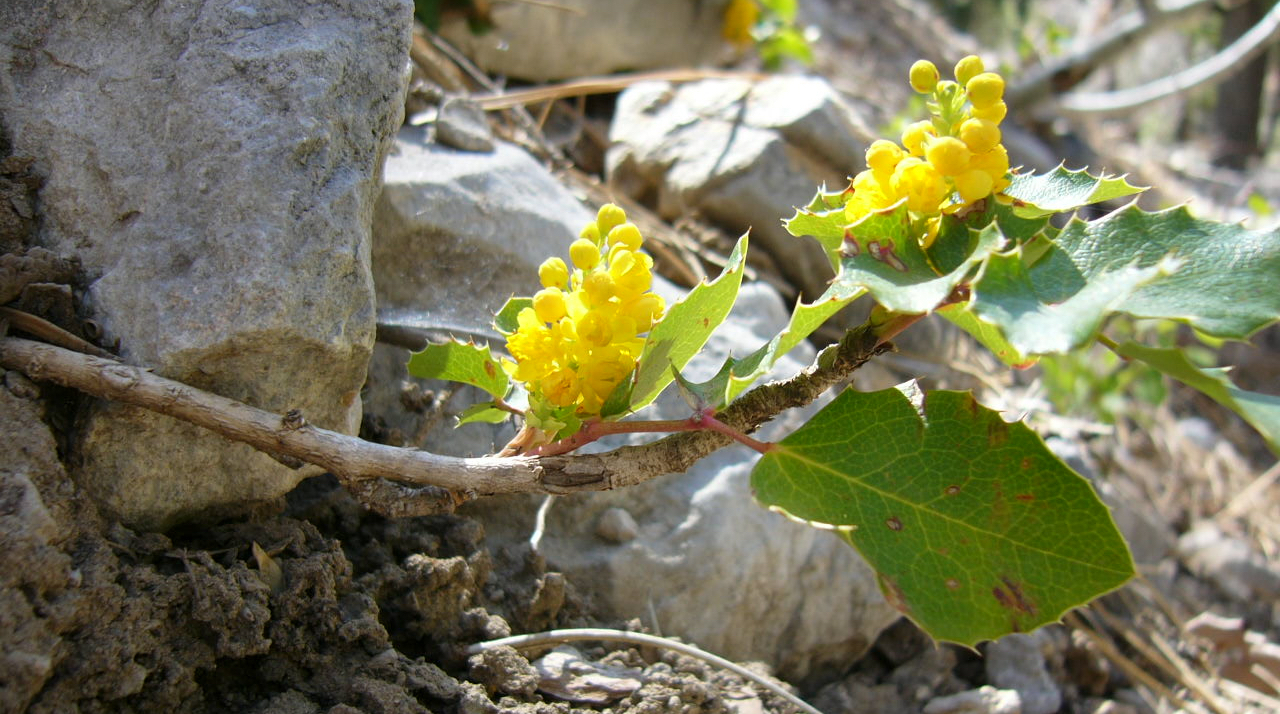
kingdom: Plantae
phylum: Tracheophyta
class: Magnoliopsida
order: Ranunculales
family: Berberidaceae
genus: Mahonia
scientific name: Mahonia repens
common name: Creeping oregon-grape
